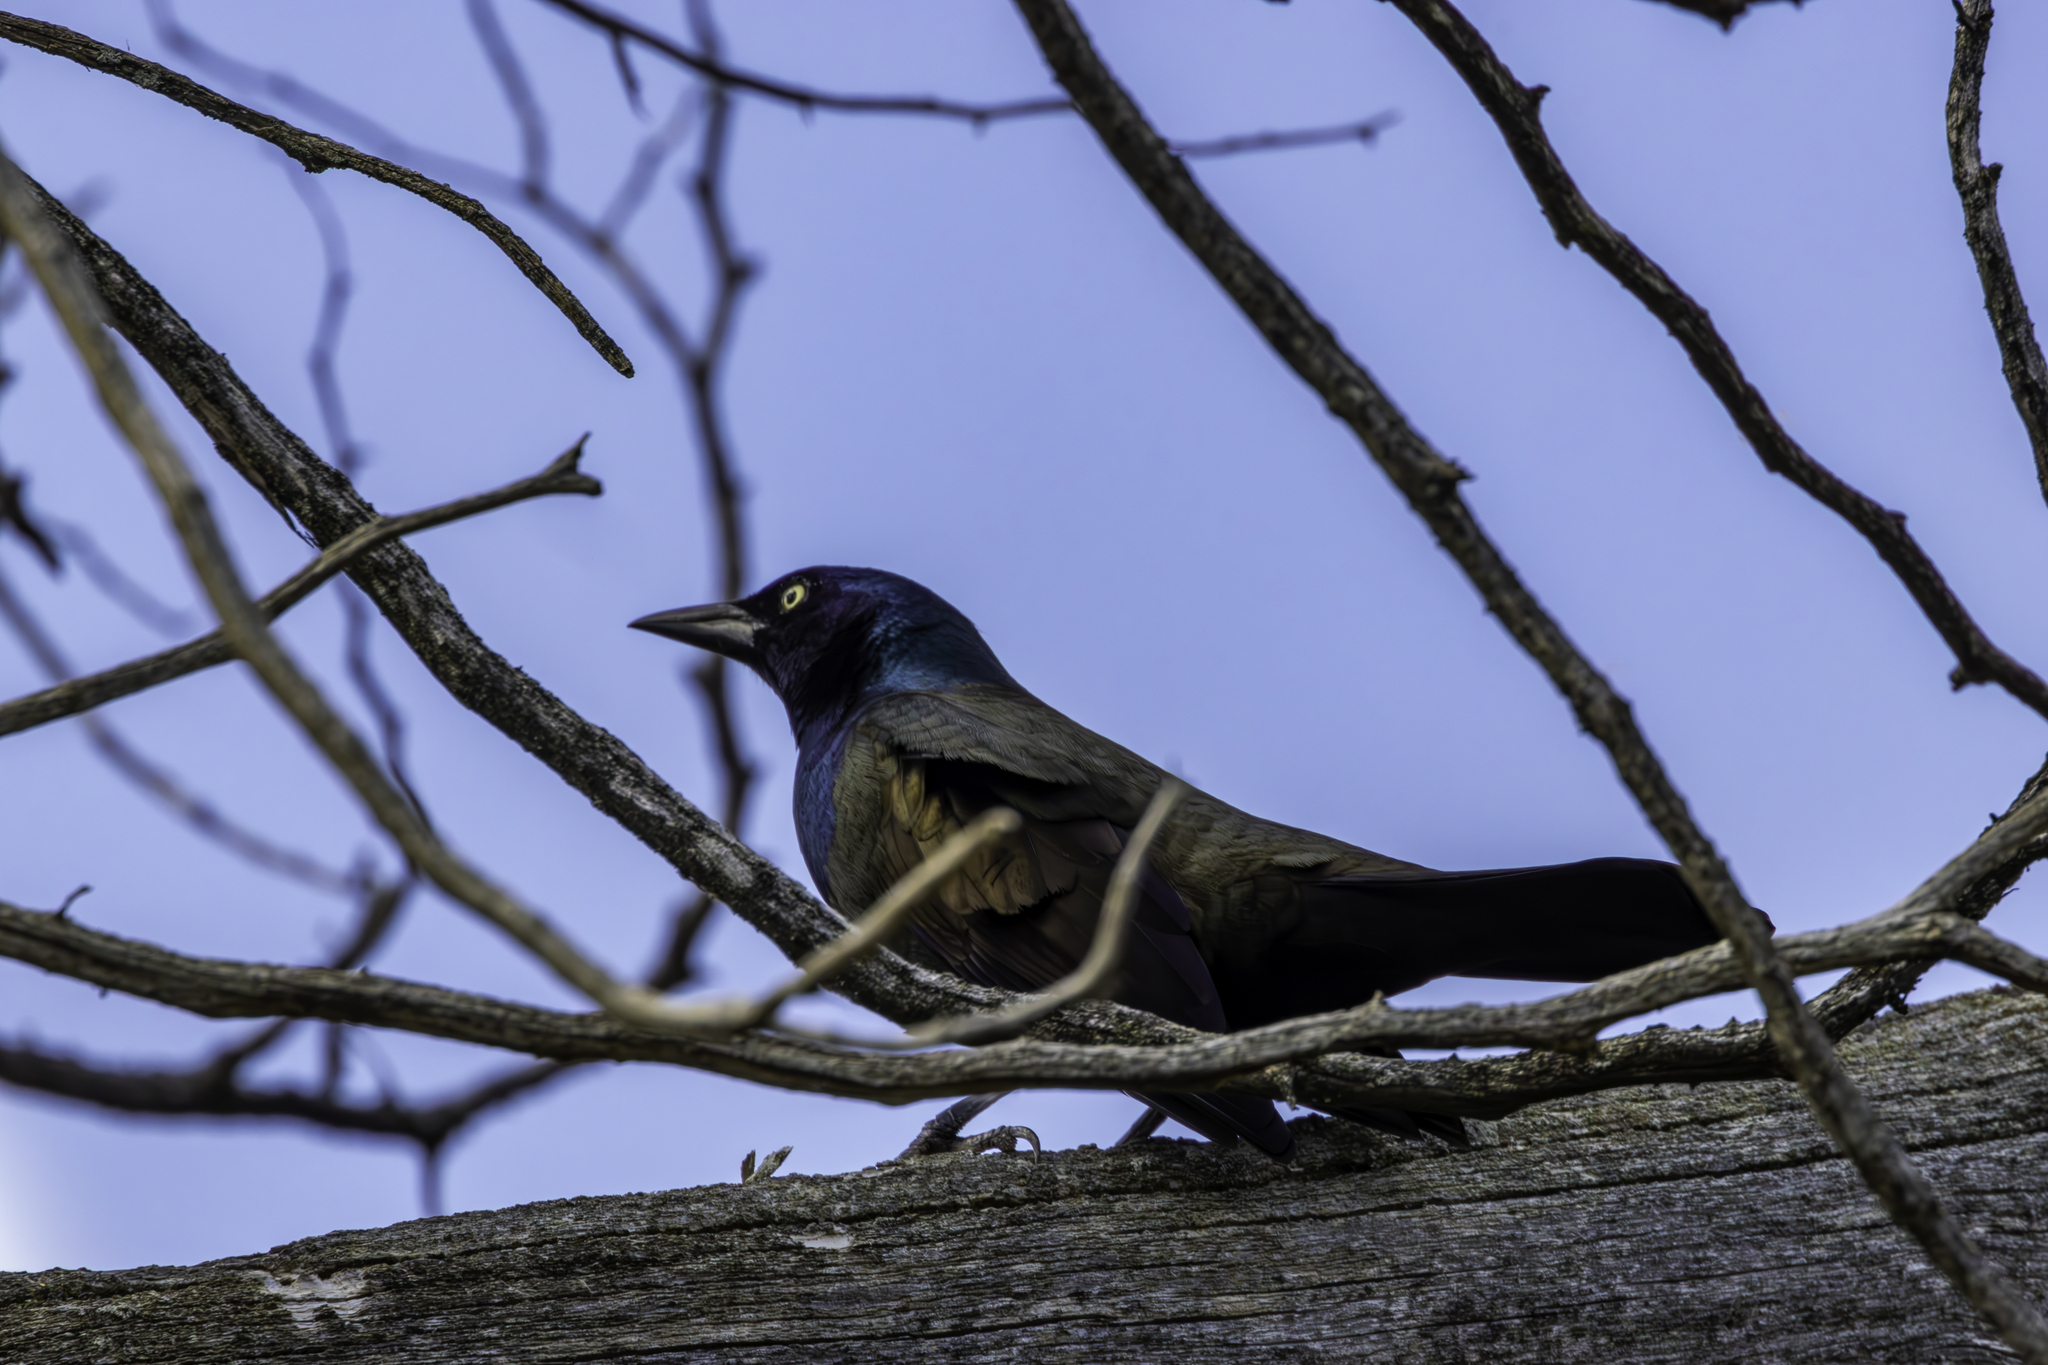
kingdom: Animalia
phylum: Chordata
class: Aves
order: Passeriformes
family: Icteridae
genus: Quiscalus
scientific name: Quiscalus quiscula
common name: Common grackle
